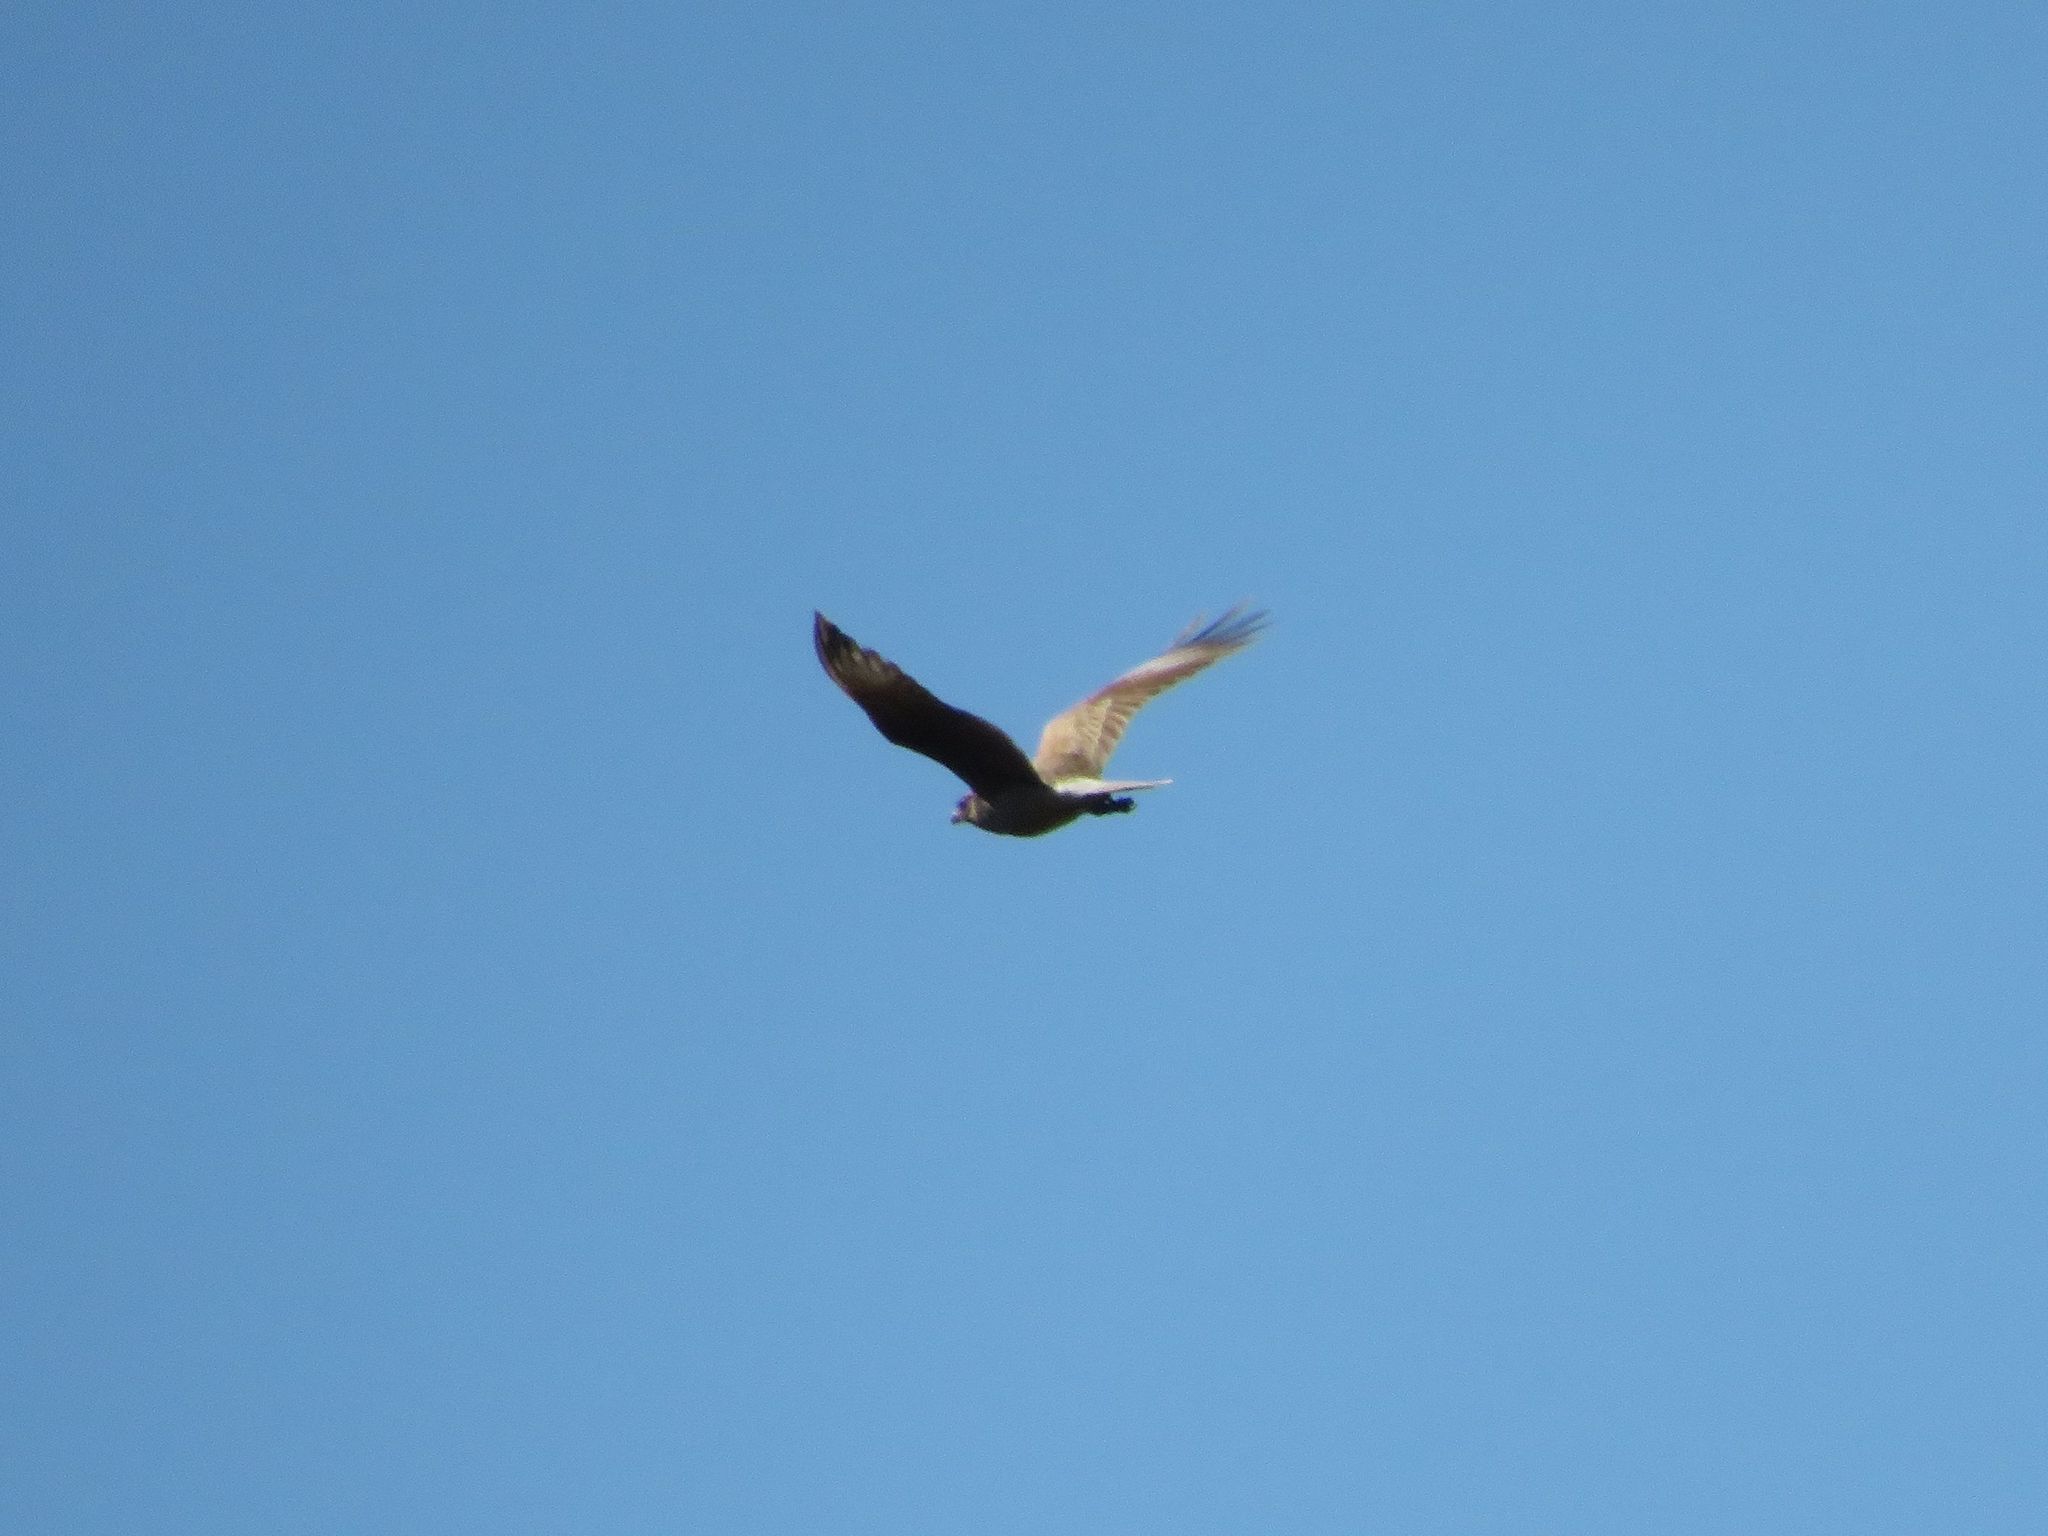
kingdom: Animalia
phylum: Chordata
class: Aves
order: Falconiformes
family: Falconidae
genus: Daptrius
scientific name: Daptrius
